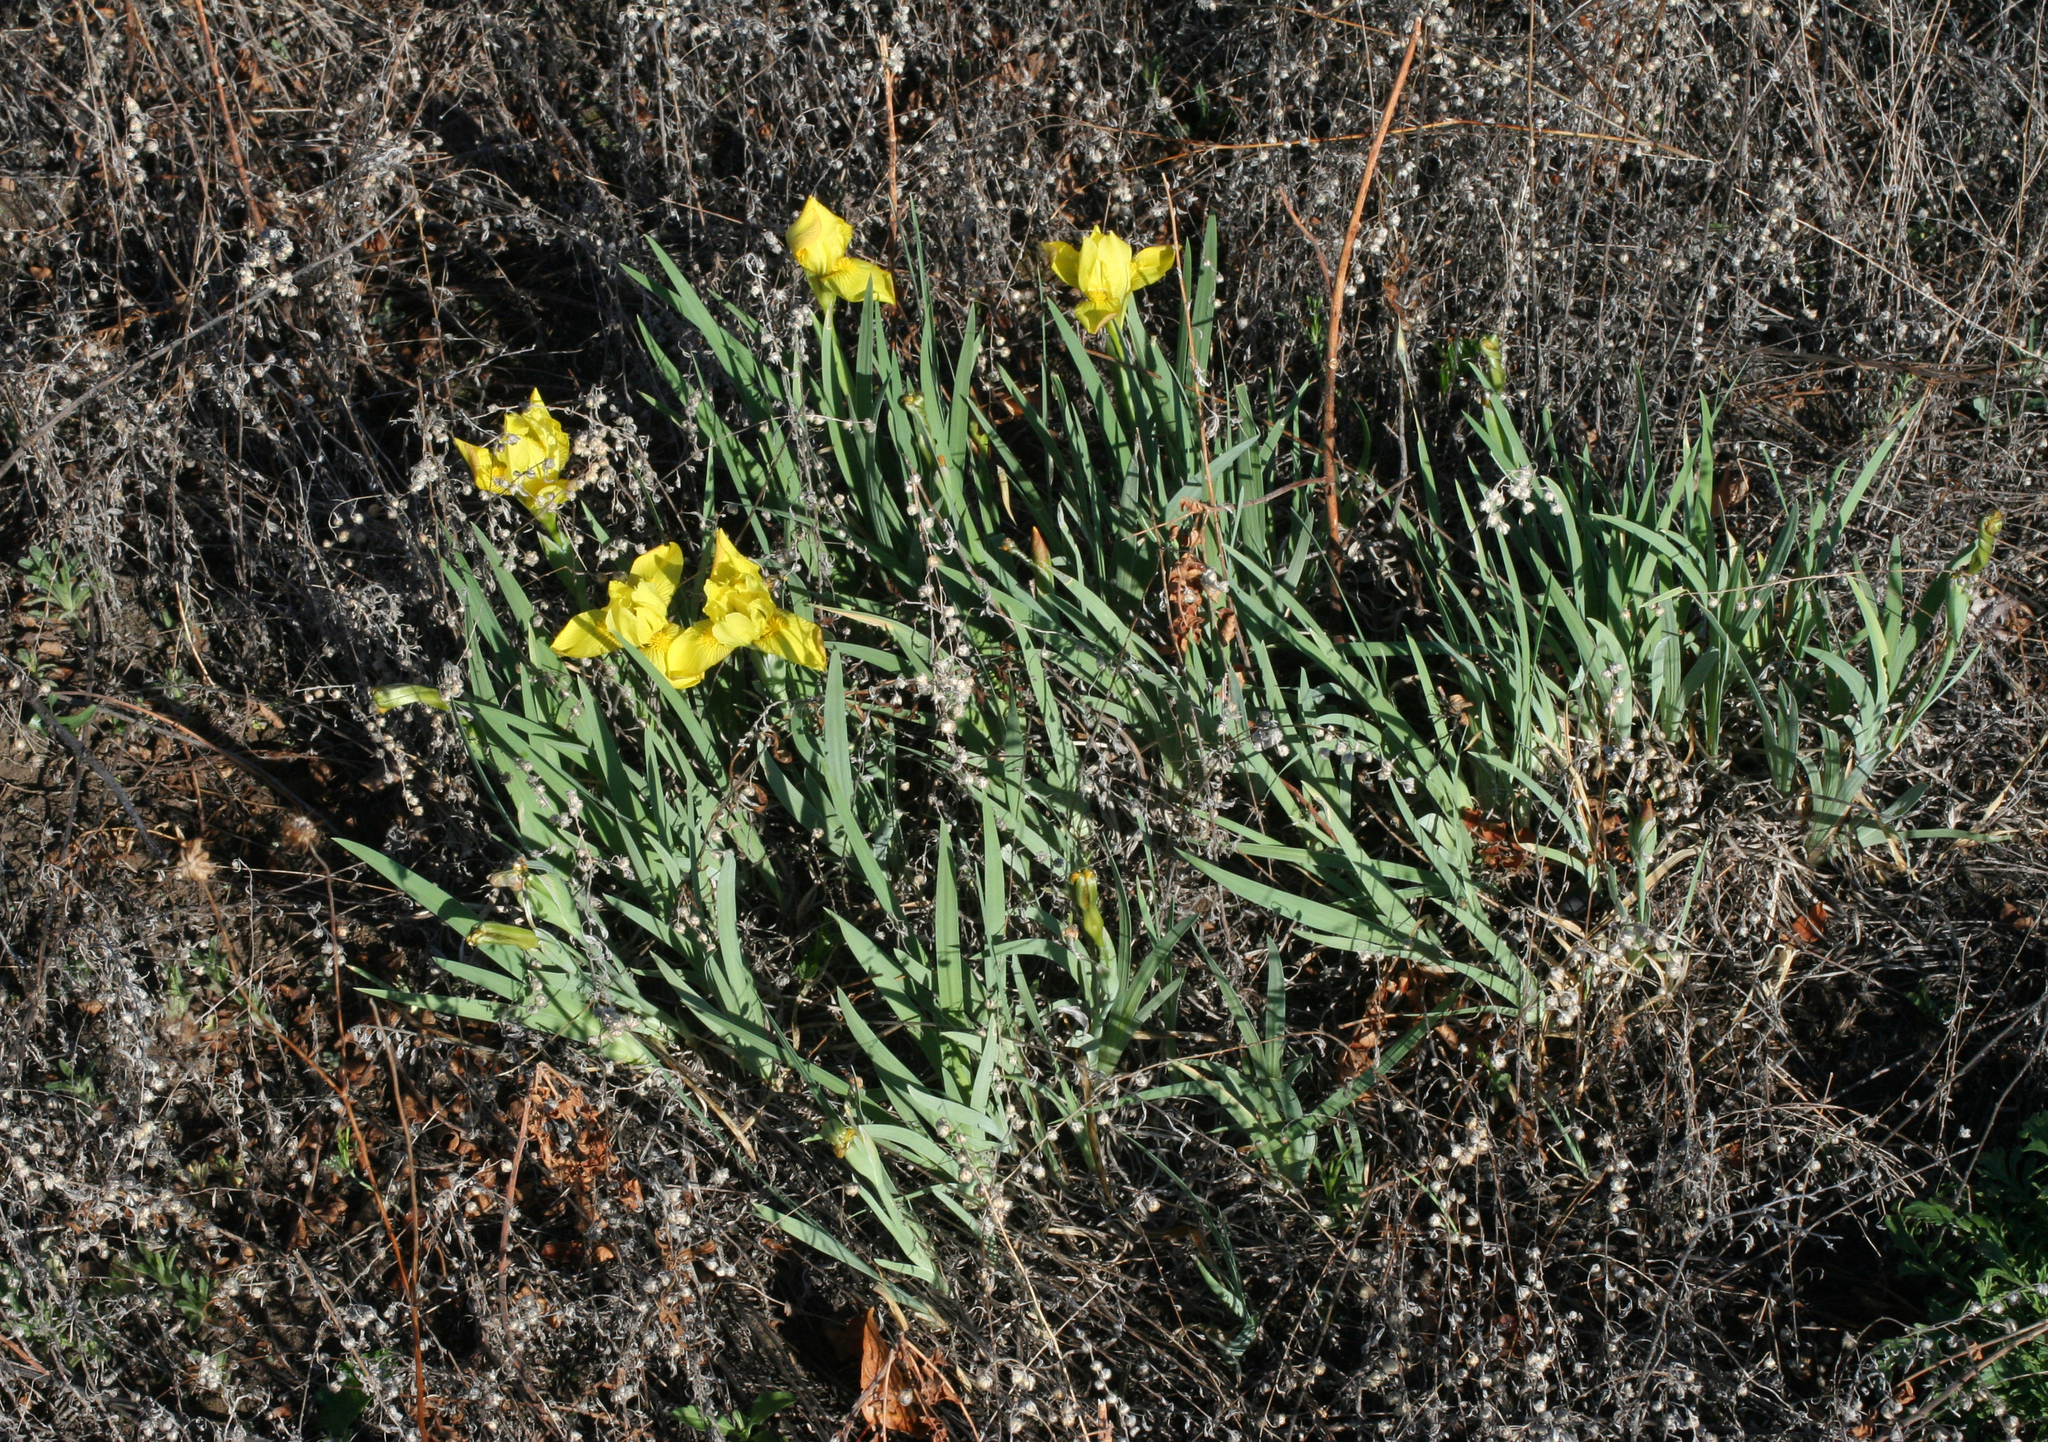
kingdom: Plantae
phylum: Tracheophyta
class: Liliopsida
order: Asparagales
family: Iridaceae
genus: Iris
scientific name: Iris humilis
